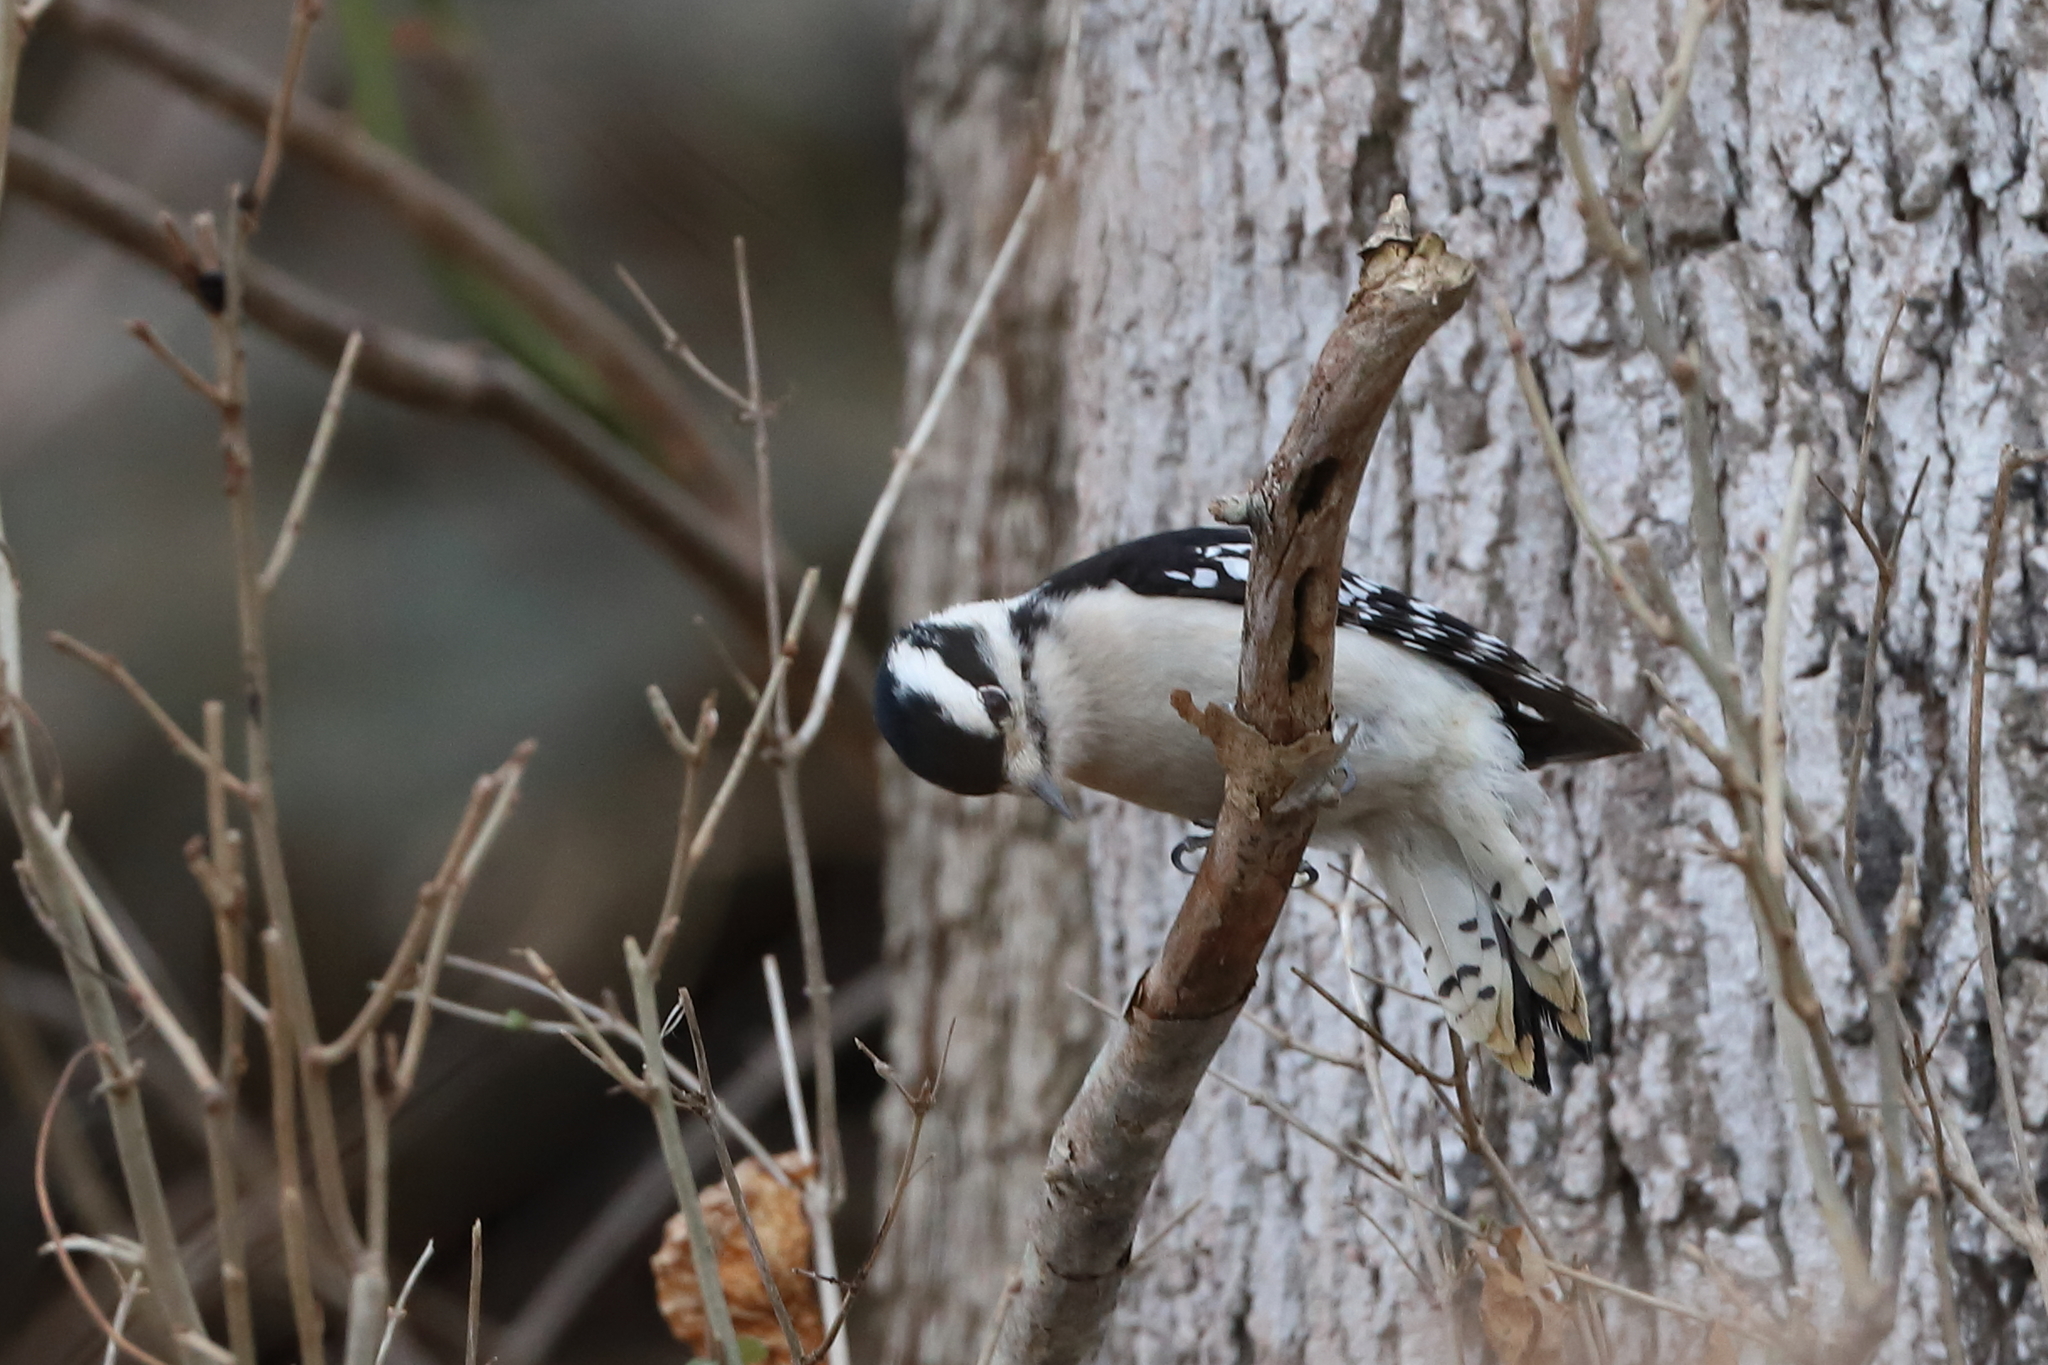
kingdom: Animalia
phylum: Chordata
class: Aves
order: Piciformes
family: Picidae
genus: Dryobates
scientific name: Dryobates pubescens
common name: Downy woodpecker
